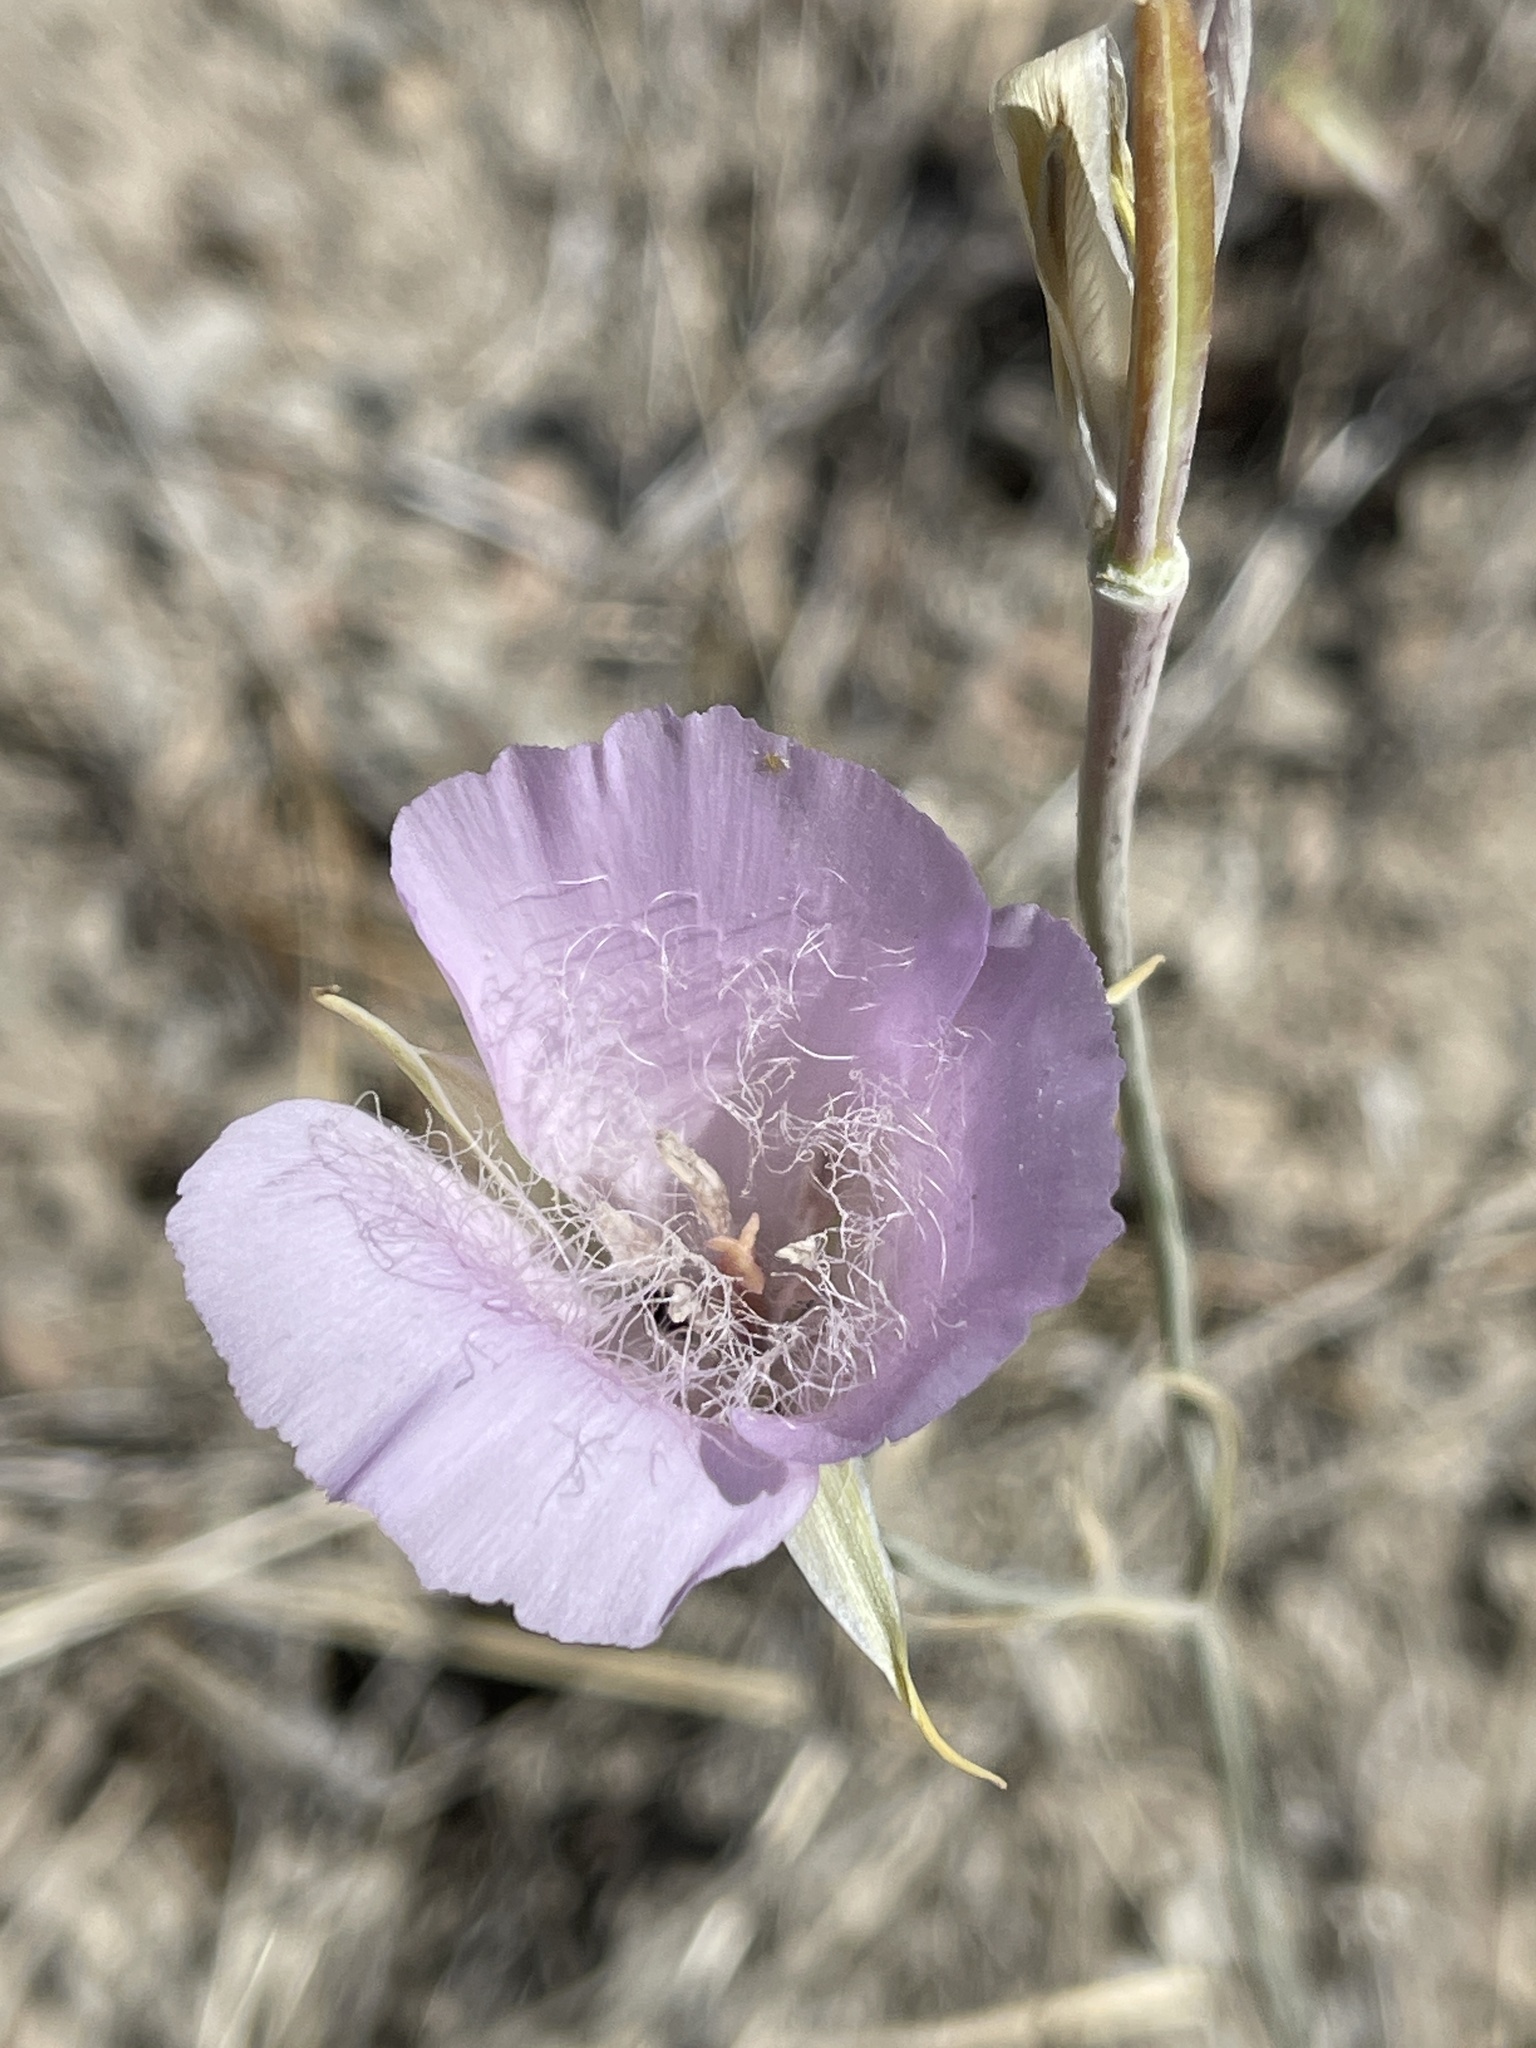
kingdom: Plantae
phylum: Tracheophyta
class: Liliopsida
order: Liliales
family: Liliaceae
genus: Calochortus
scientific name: Calochortus splendens
